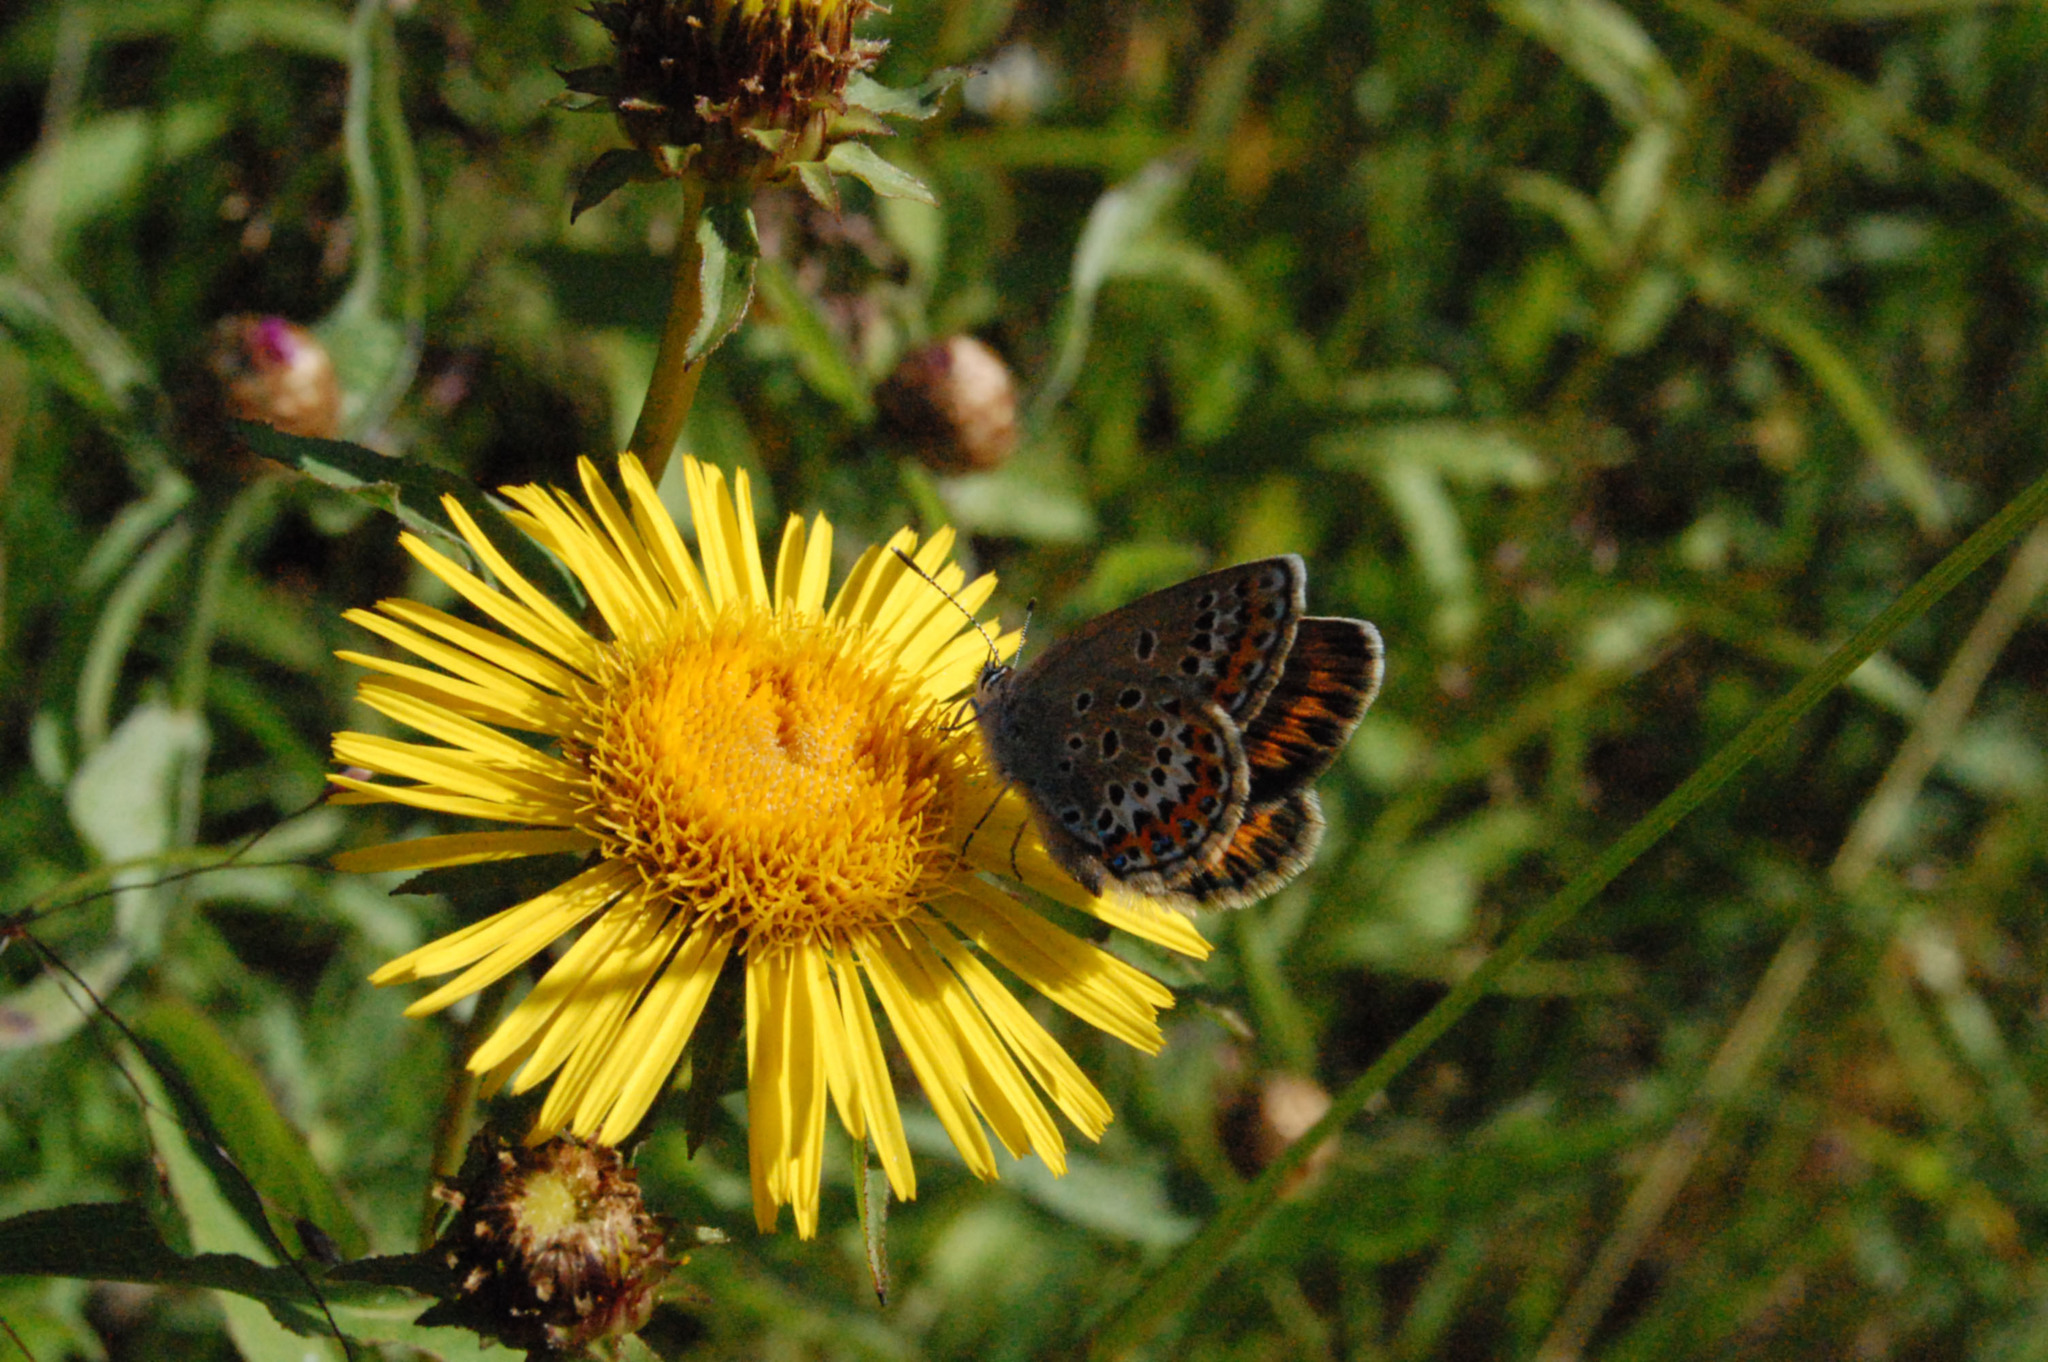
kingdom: Animalia
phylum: Arthropoda
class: Insecta
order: Lepidoptera
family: Lycaenidae
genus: Plebejus
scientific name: Plebejus argus
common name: Silver-studded blue
